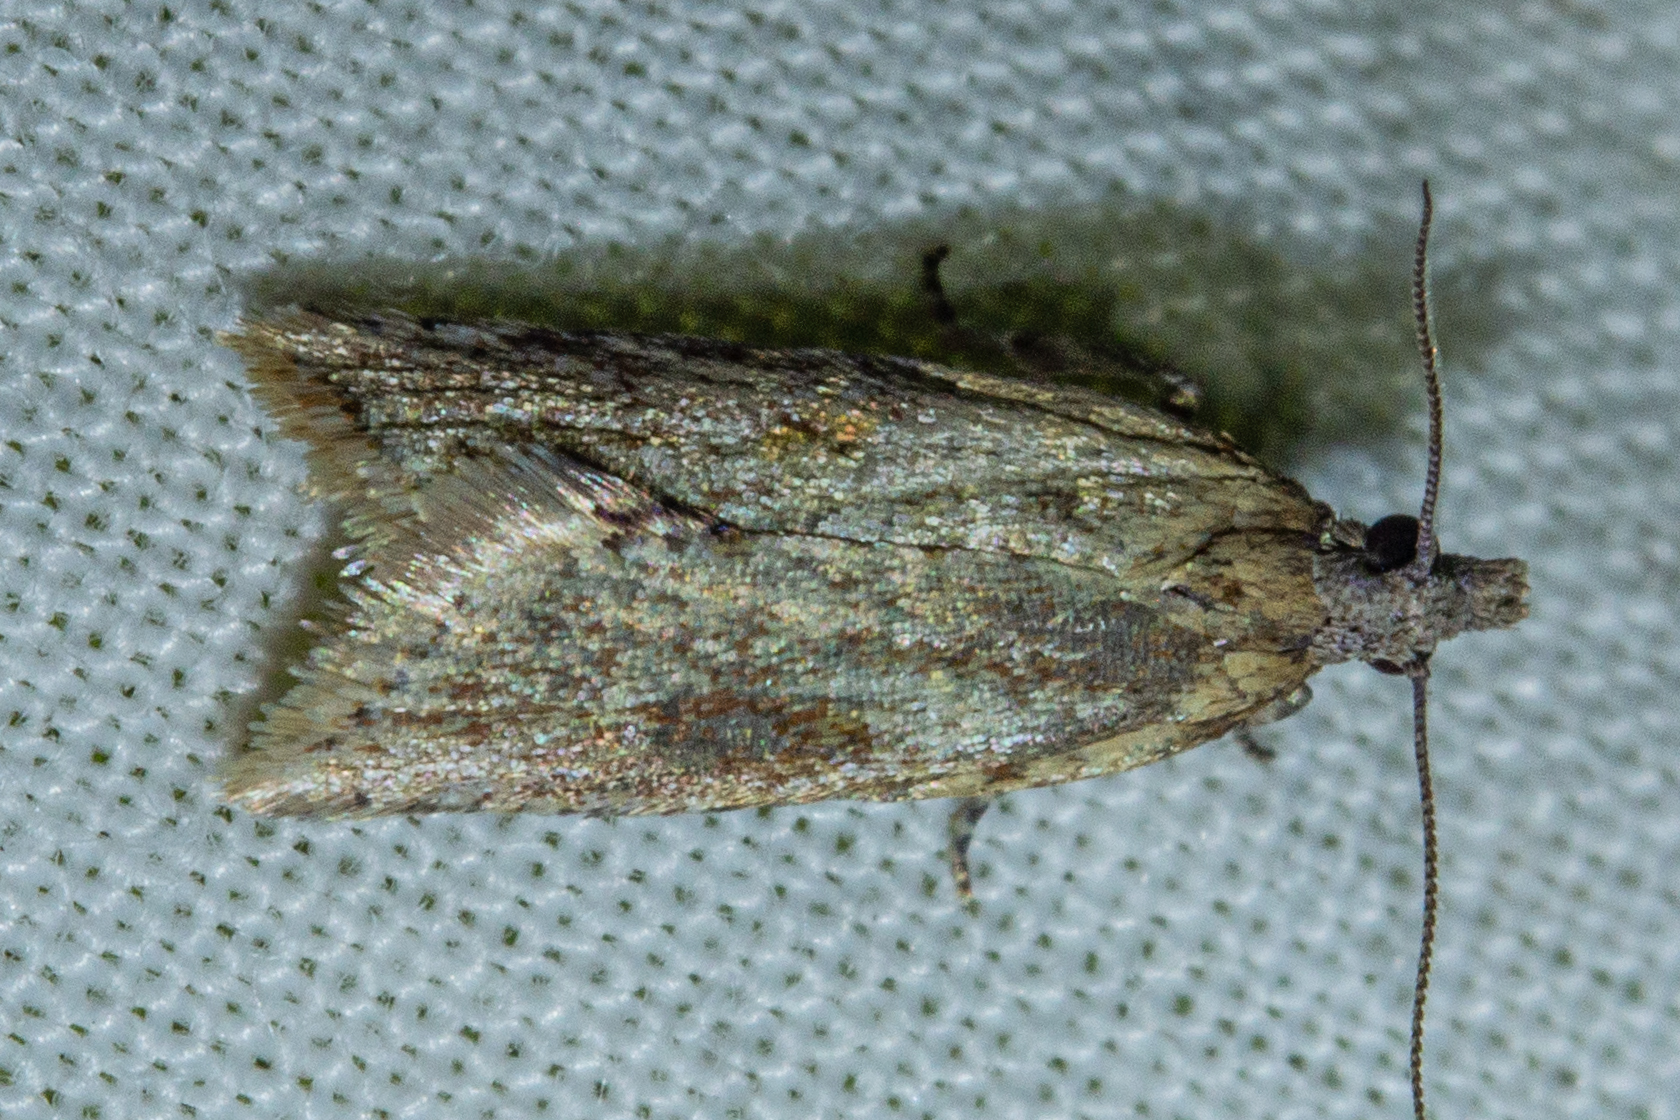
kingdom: Animalia
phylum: Arthropoda
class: Insecta
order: Lepidoptera
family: Tortricidae
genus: Capua
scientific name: Capua semiferana
